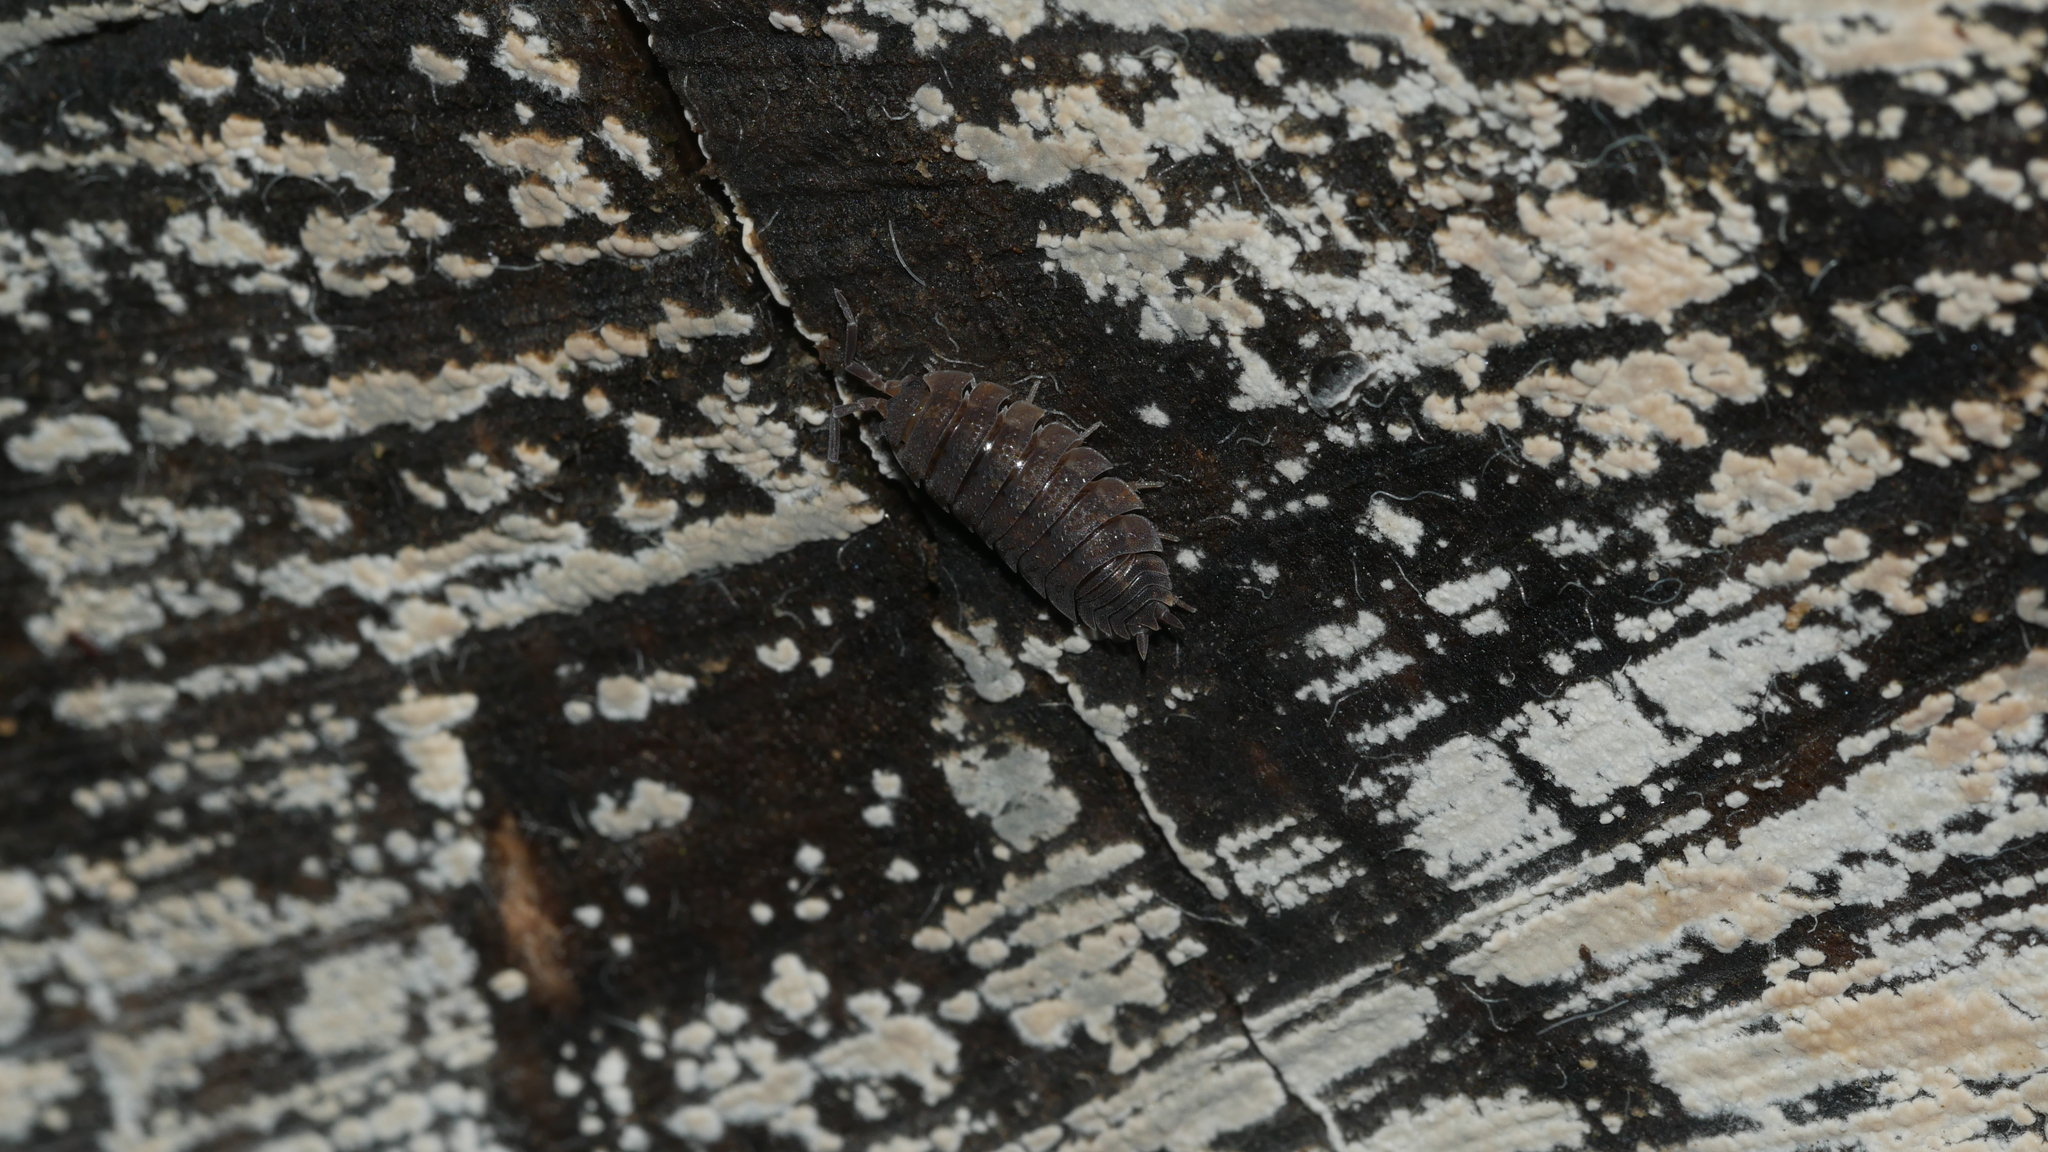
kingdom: Animalia
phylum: Arthropoda
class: Malacostraca
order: Isopoda
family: Porcellionidae
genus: Porcellio
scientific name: Porcellio scaber
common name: Common rough woodlouse
